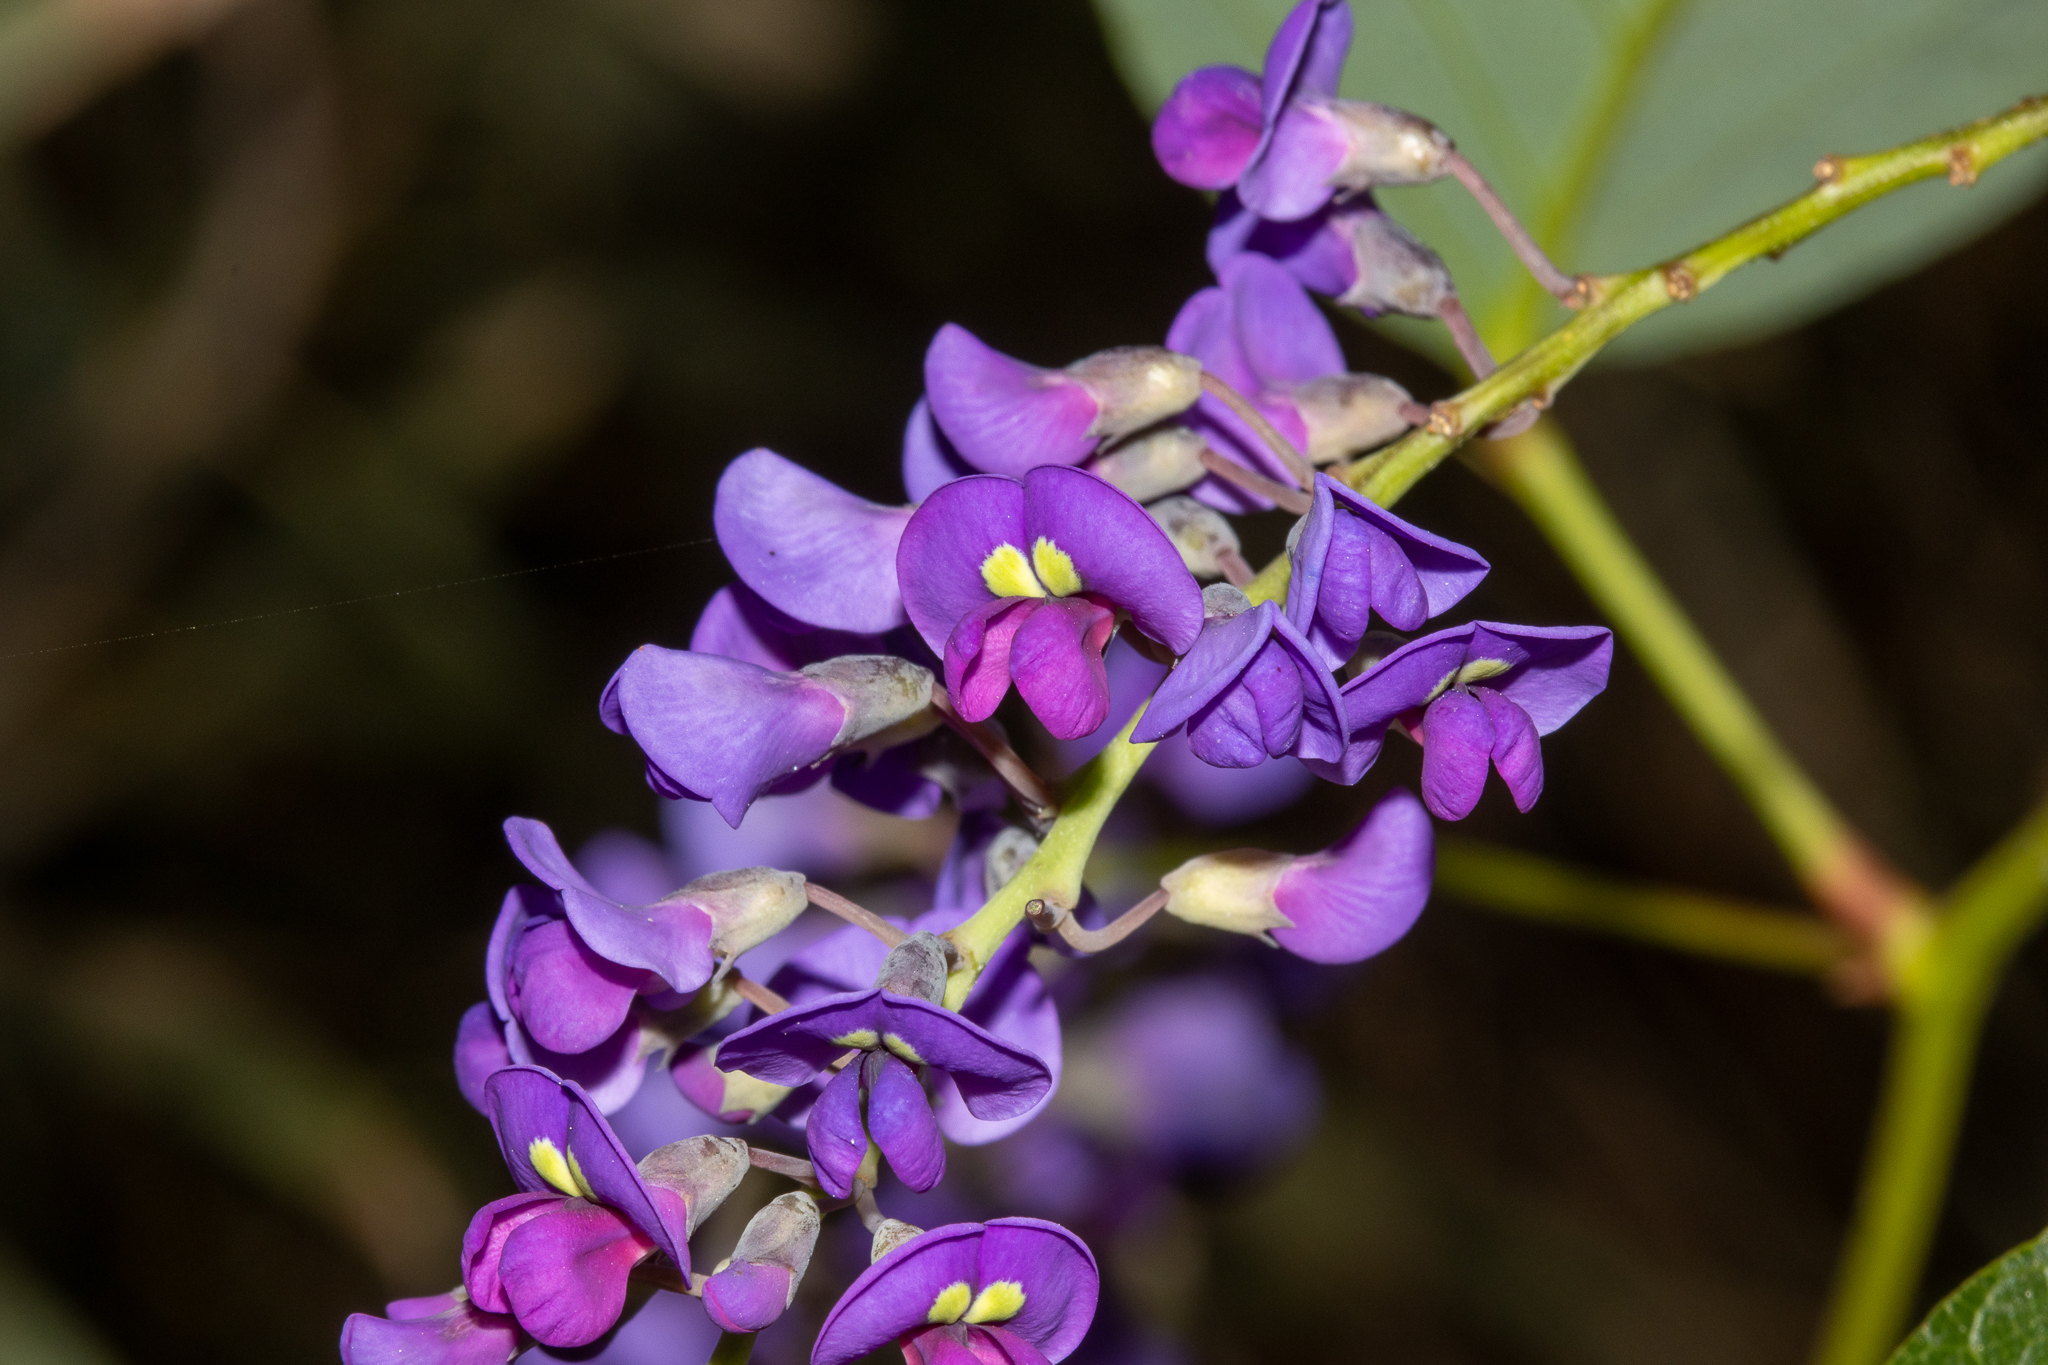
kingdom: Plantae
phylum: Tracheophyta
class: Magnoliopsida
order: Fabales
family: Fabaceae
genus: Hardenbergia
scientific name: Hardenbergia violacea
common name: Coral-pea
